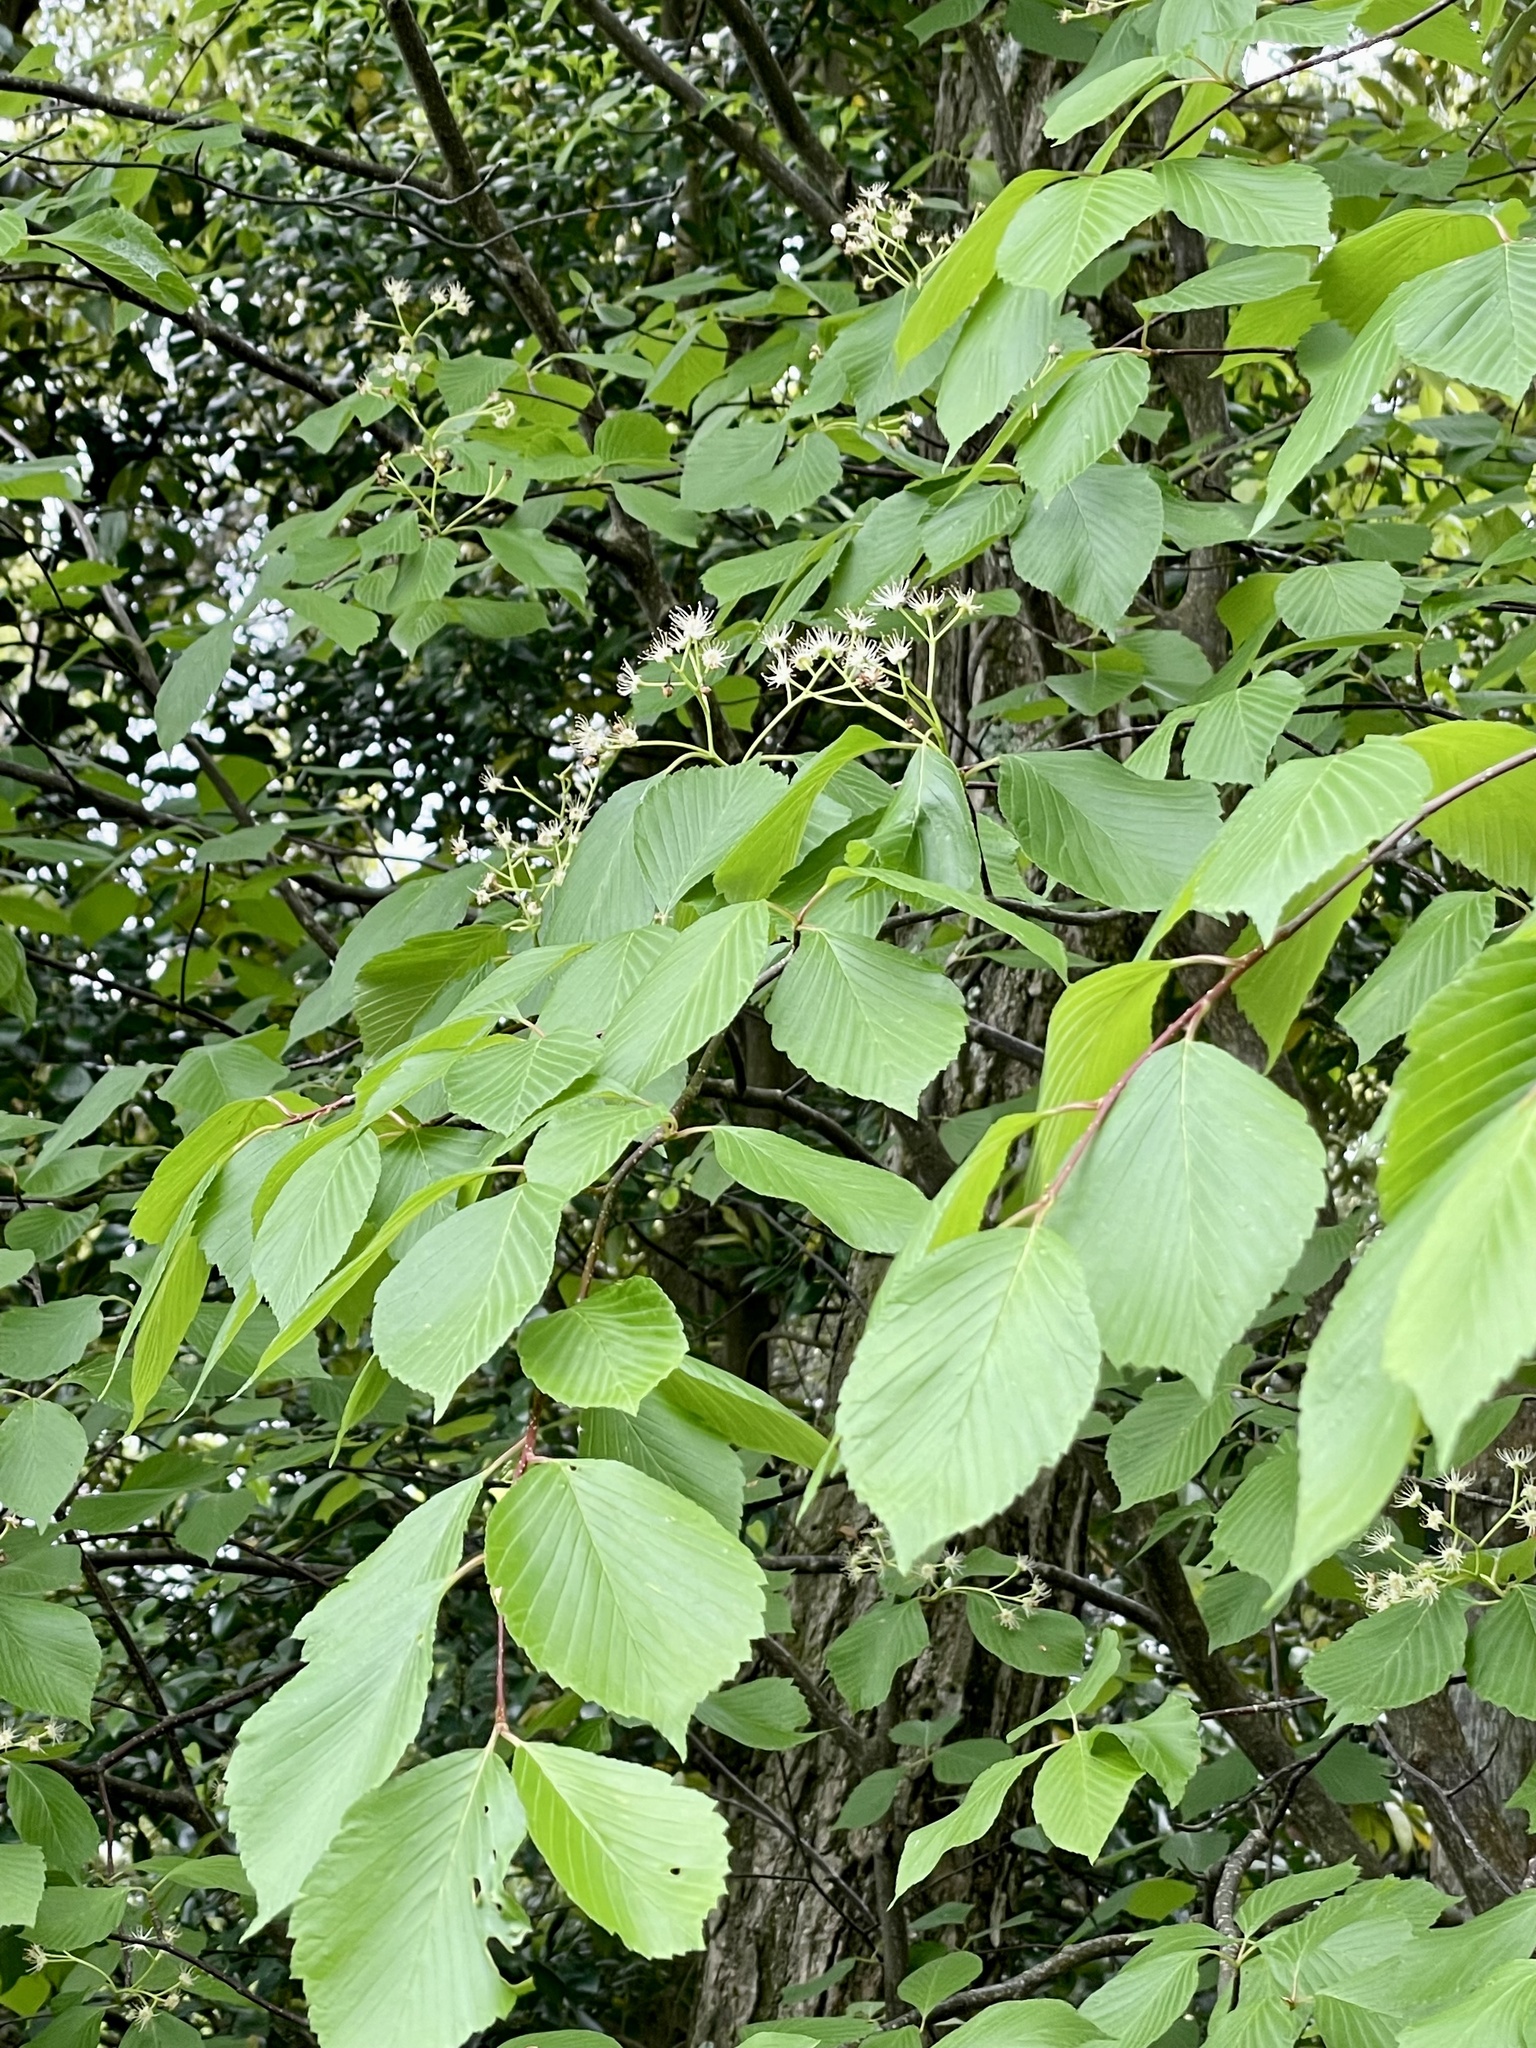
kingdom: Plantae
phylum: Tracheophyta
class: Magnoliopsida
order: Rosales
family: Rosaceae
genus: Sorbus
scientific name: Sorbus alnifolia
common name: Mountain-ash
